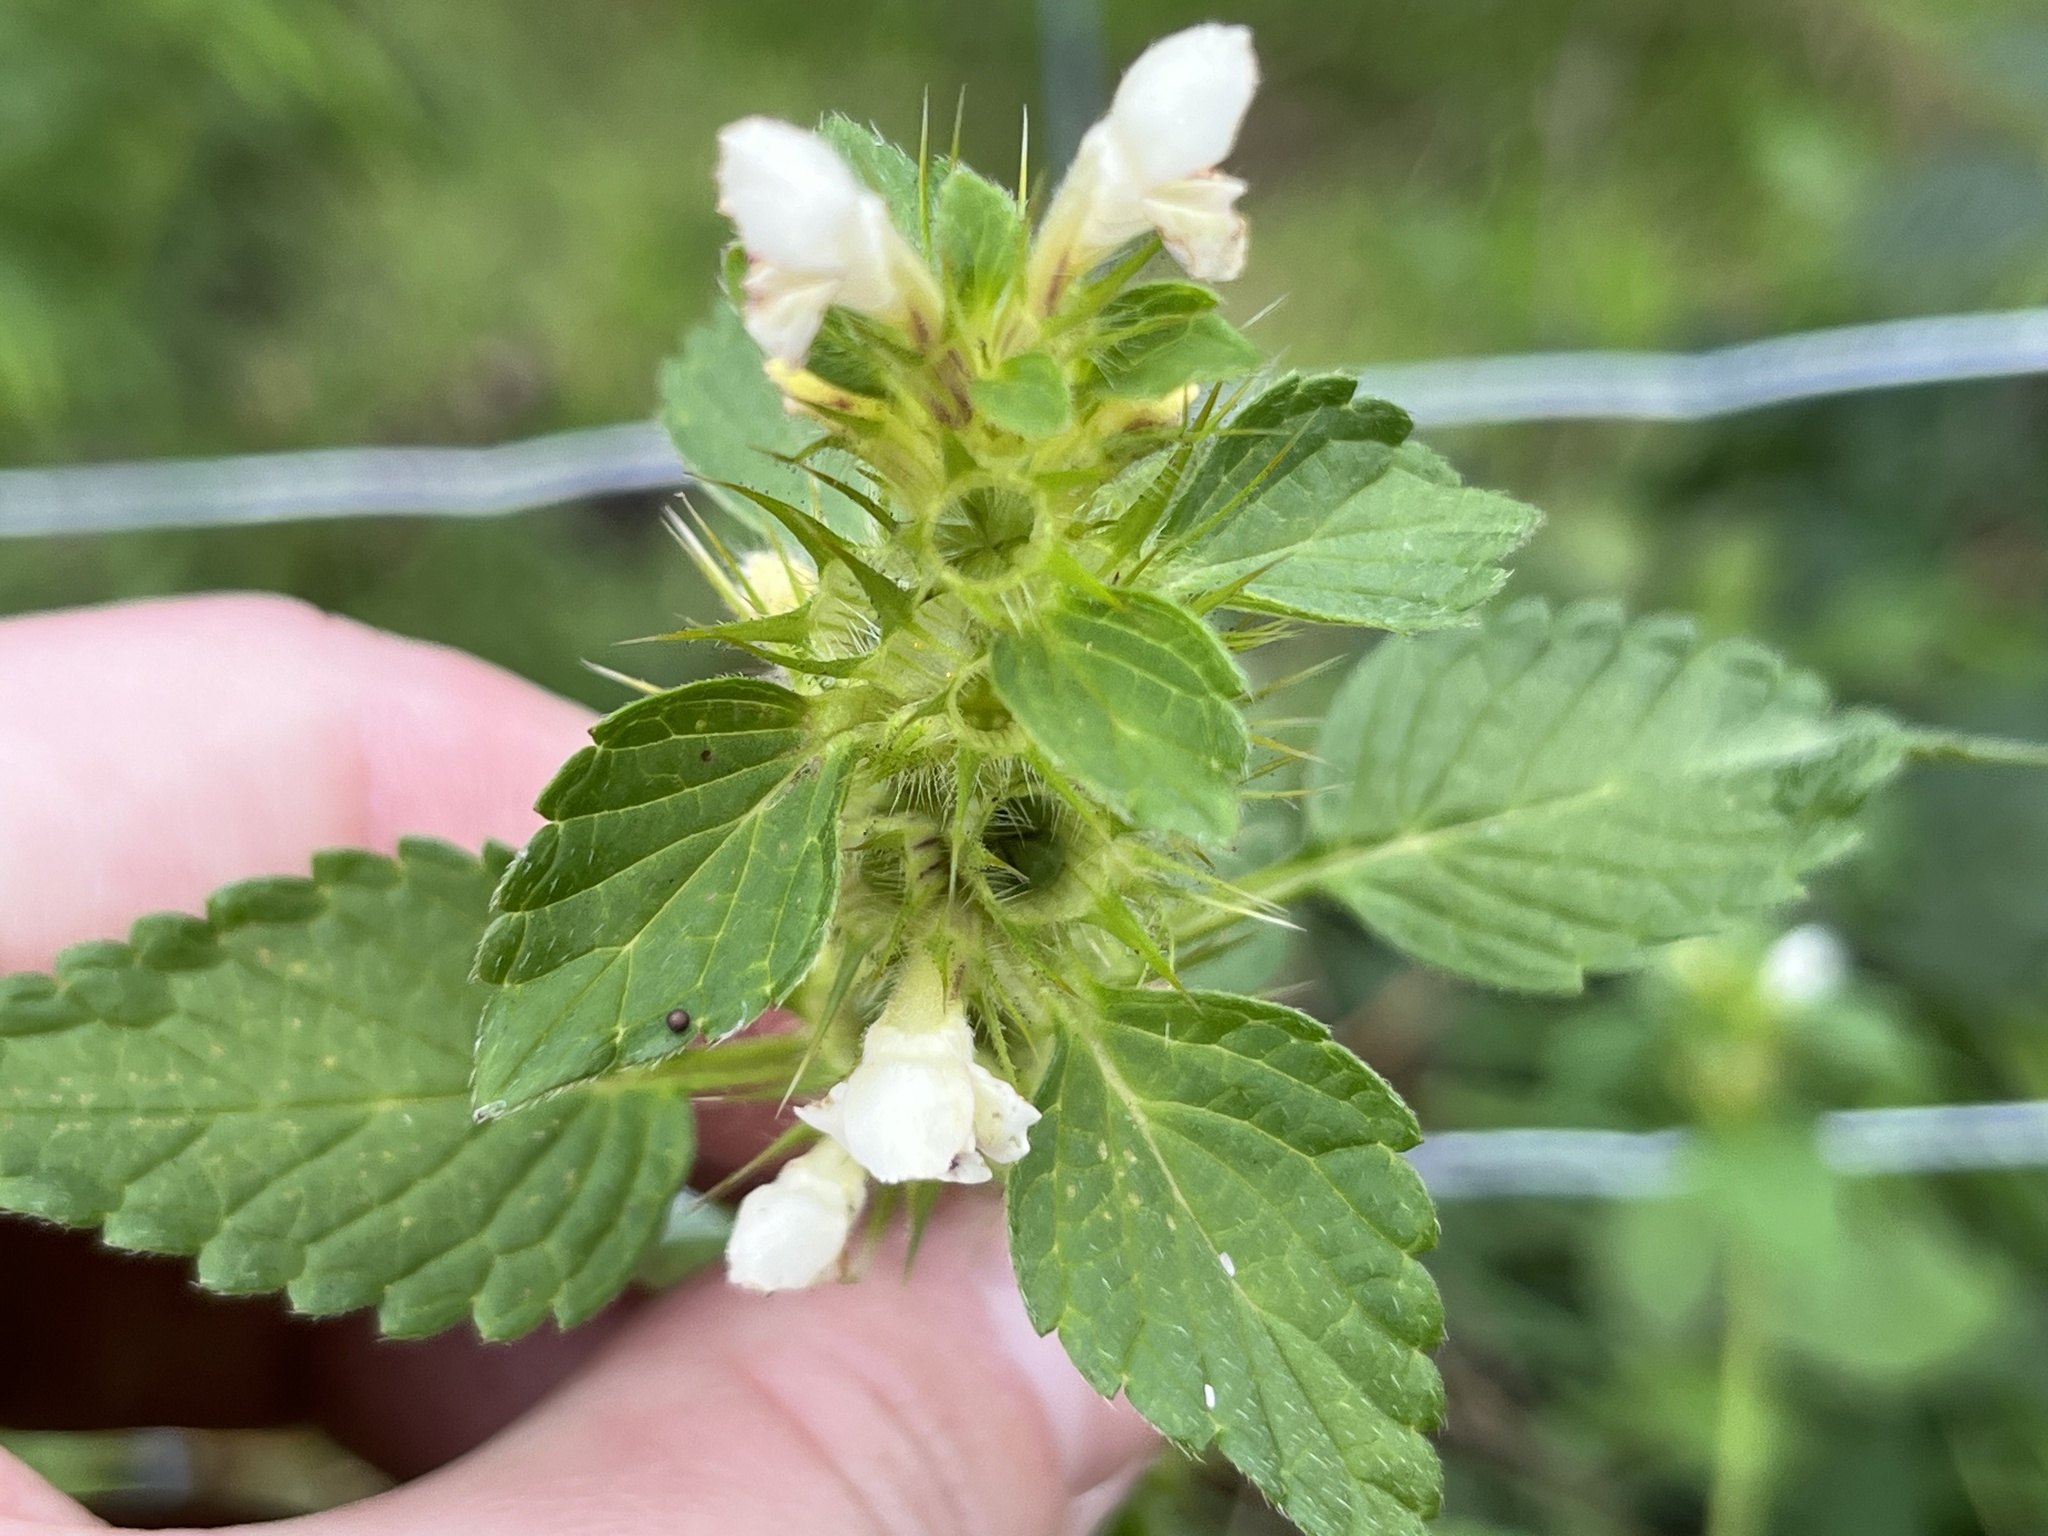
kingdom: Plantae
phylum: Tracheophyta
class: Magnoliopsida
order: Lamiales
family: Lamiaceae
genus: Galeopsis
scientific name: Galeopsis tetrahit
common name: Common hemp-nettle
